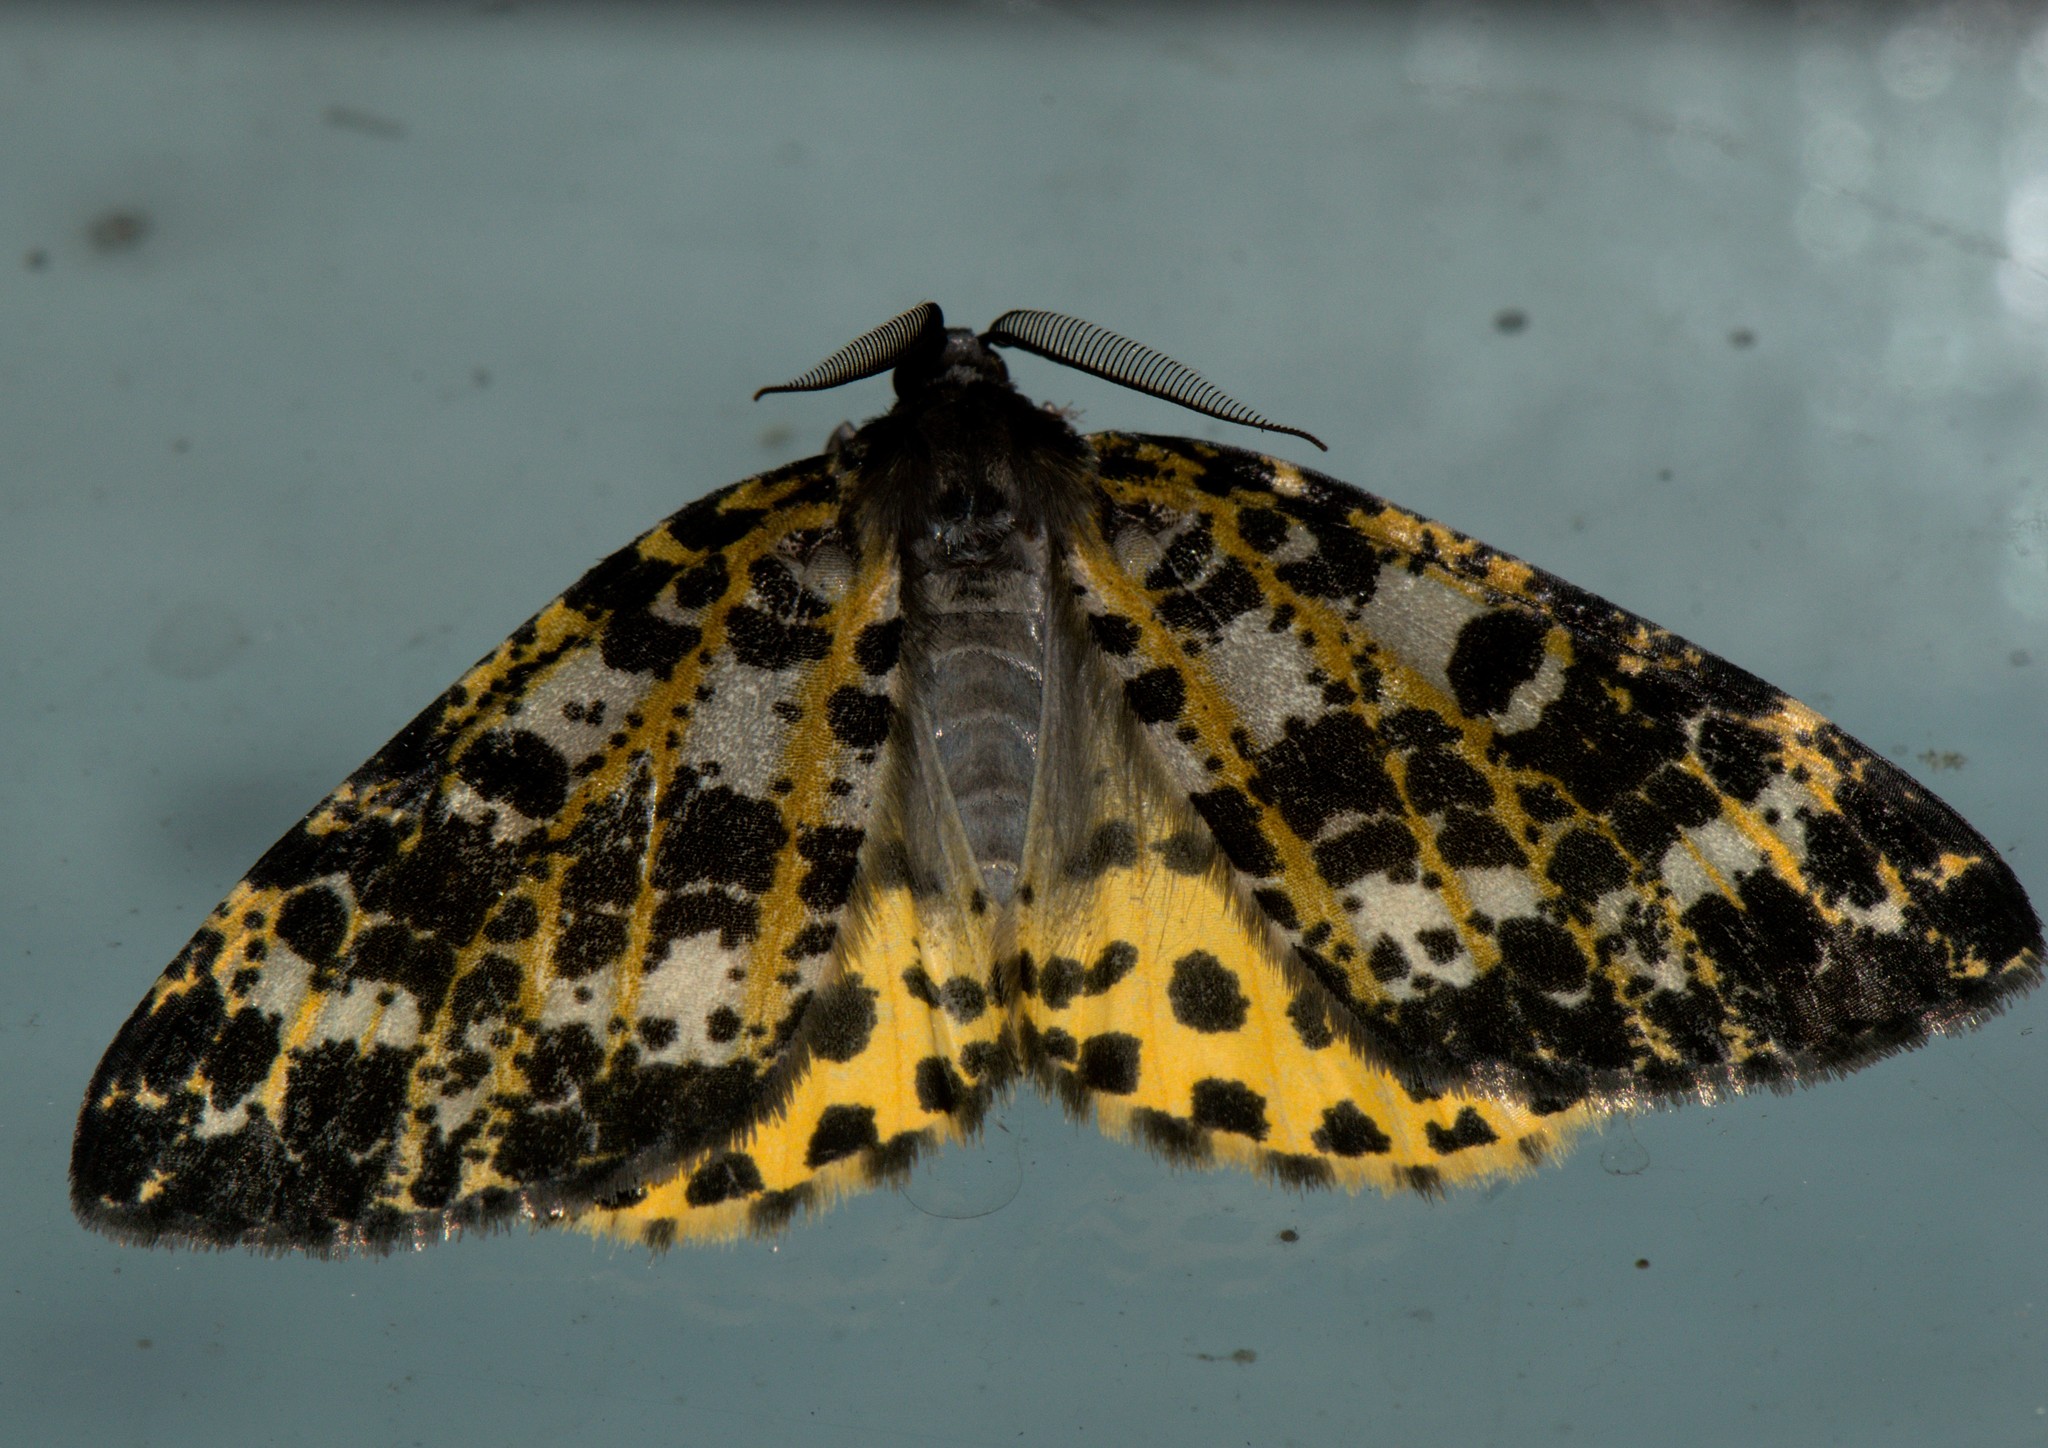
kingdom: Animalia
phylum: Arthropoda
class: Insecta
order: Lepidoptera
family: Geometridae
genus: Arichanna
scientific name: Arichanna sparsa
